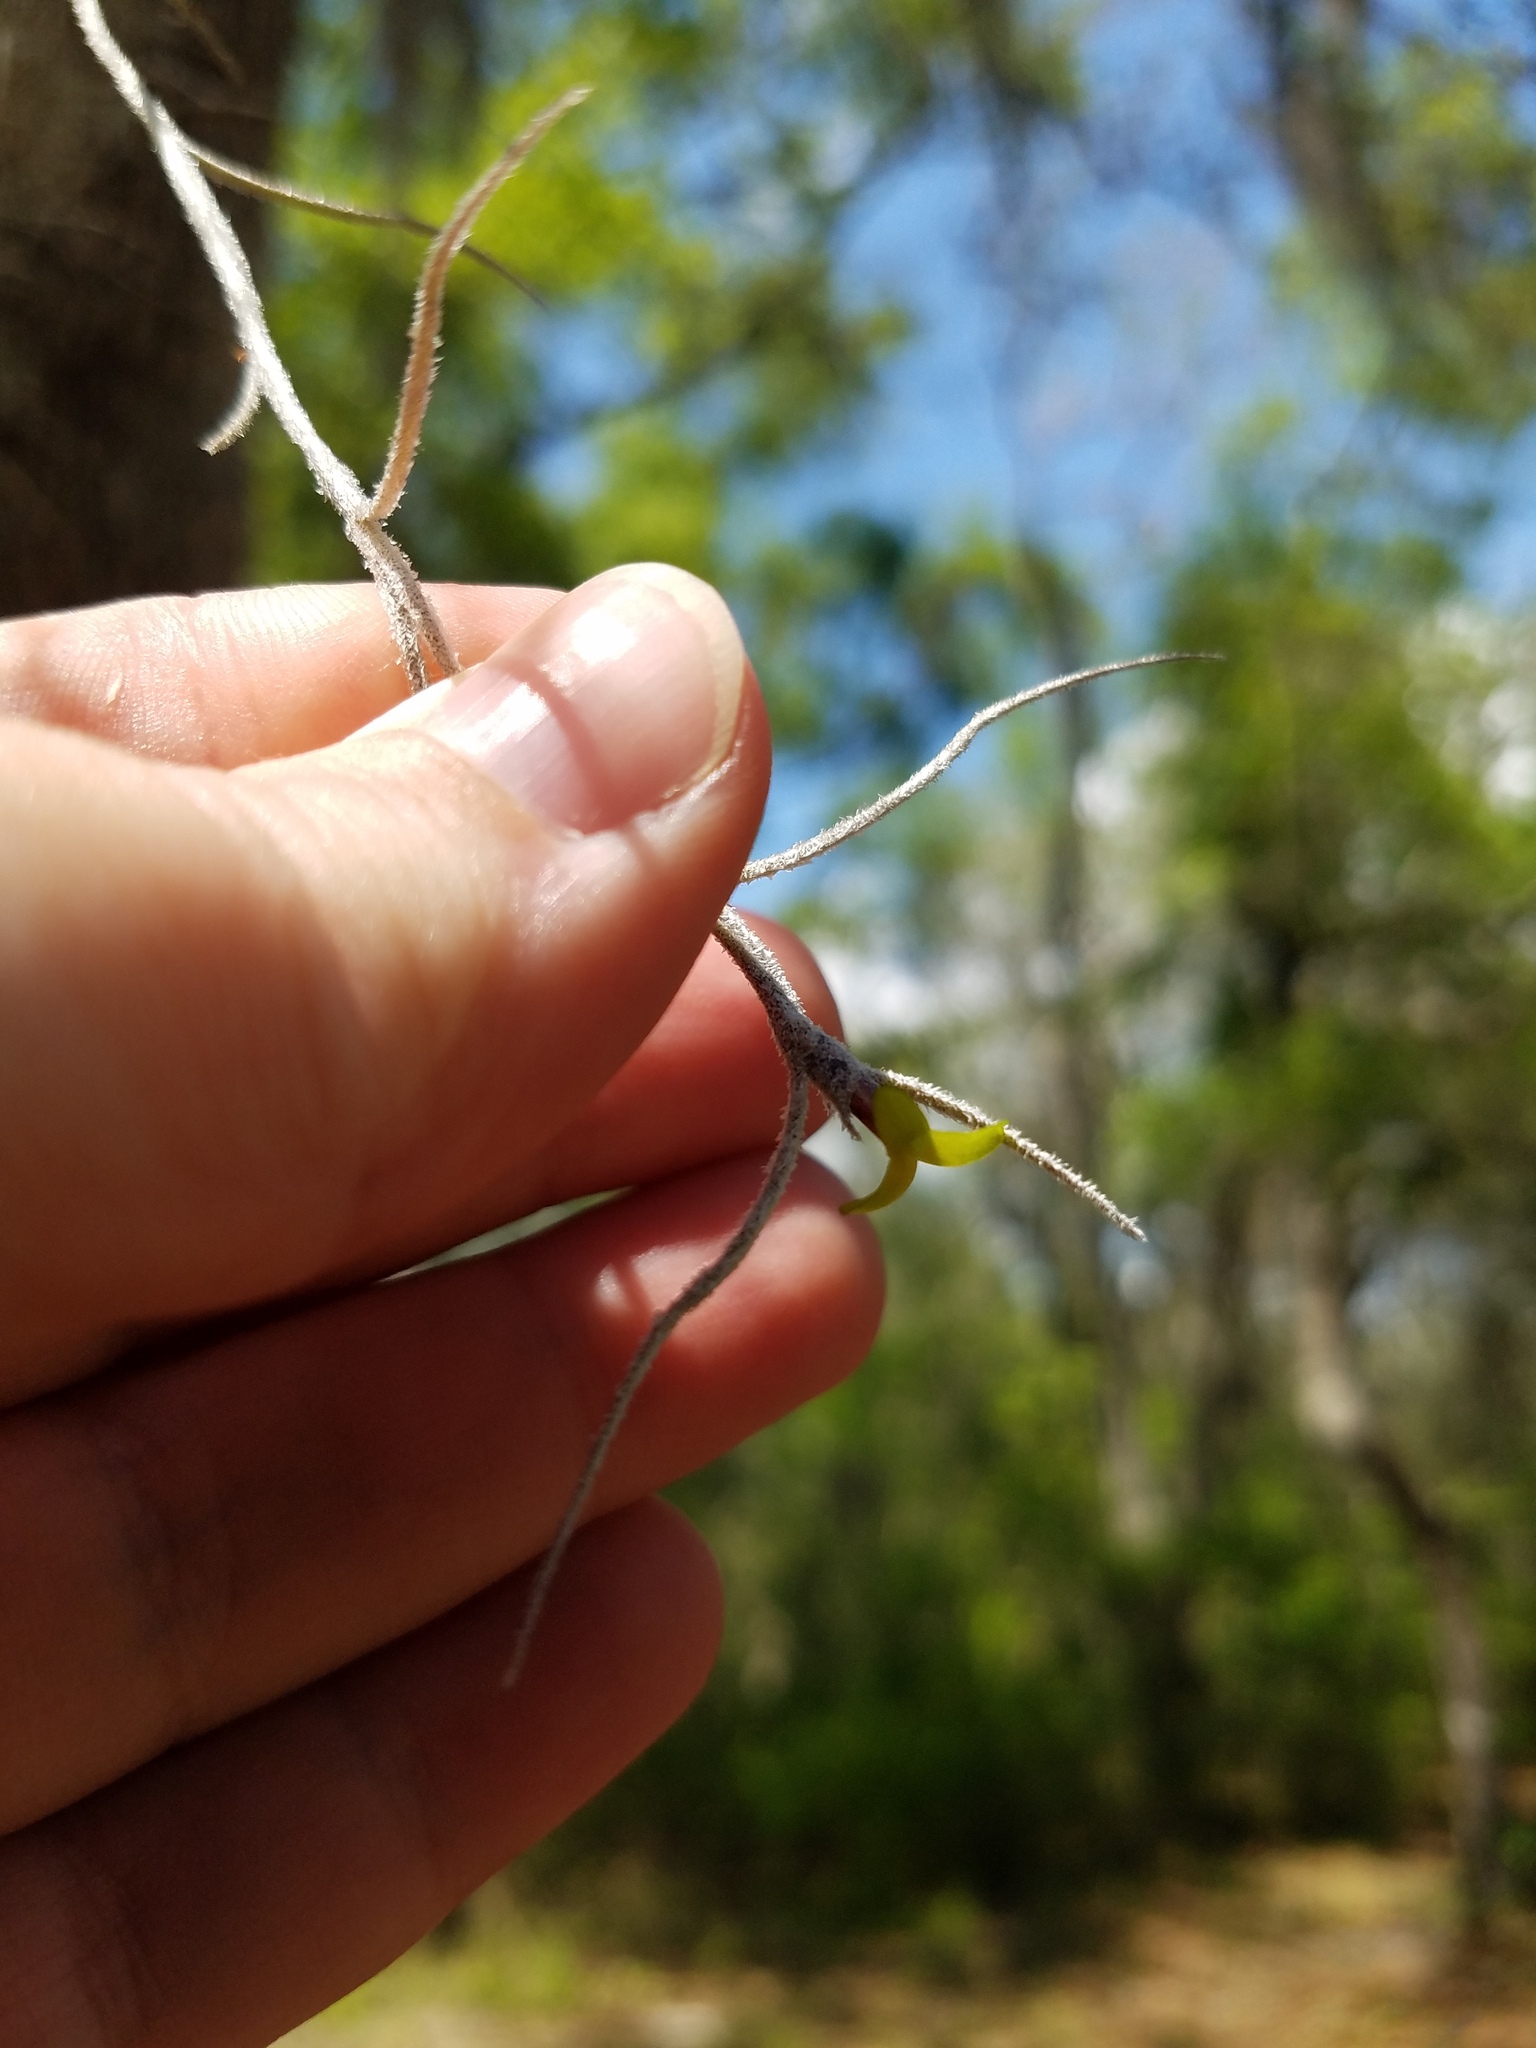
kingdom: Plantae
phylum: Tracheophyta
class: Liliopsida
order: Poales
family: Bromeliaceae
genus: Tillandsia
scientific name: Tillandsia usneoides
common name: Spanish moss
